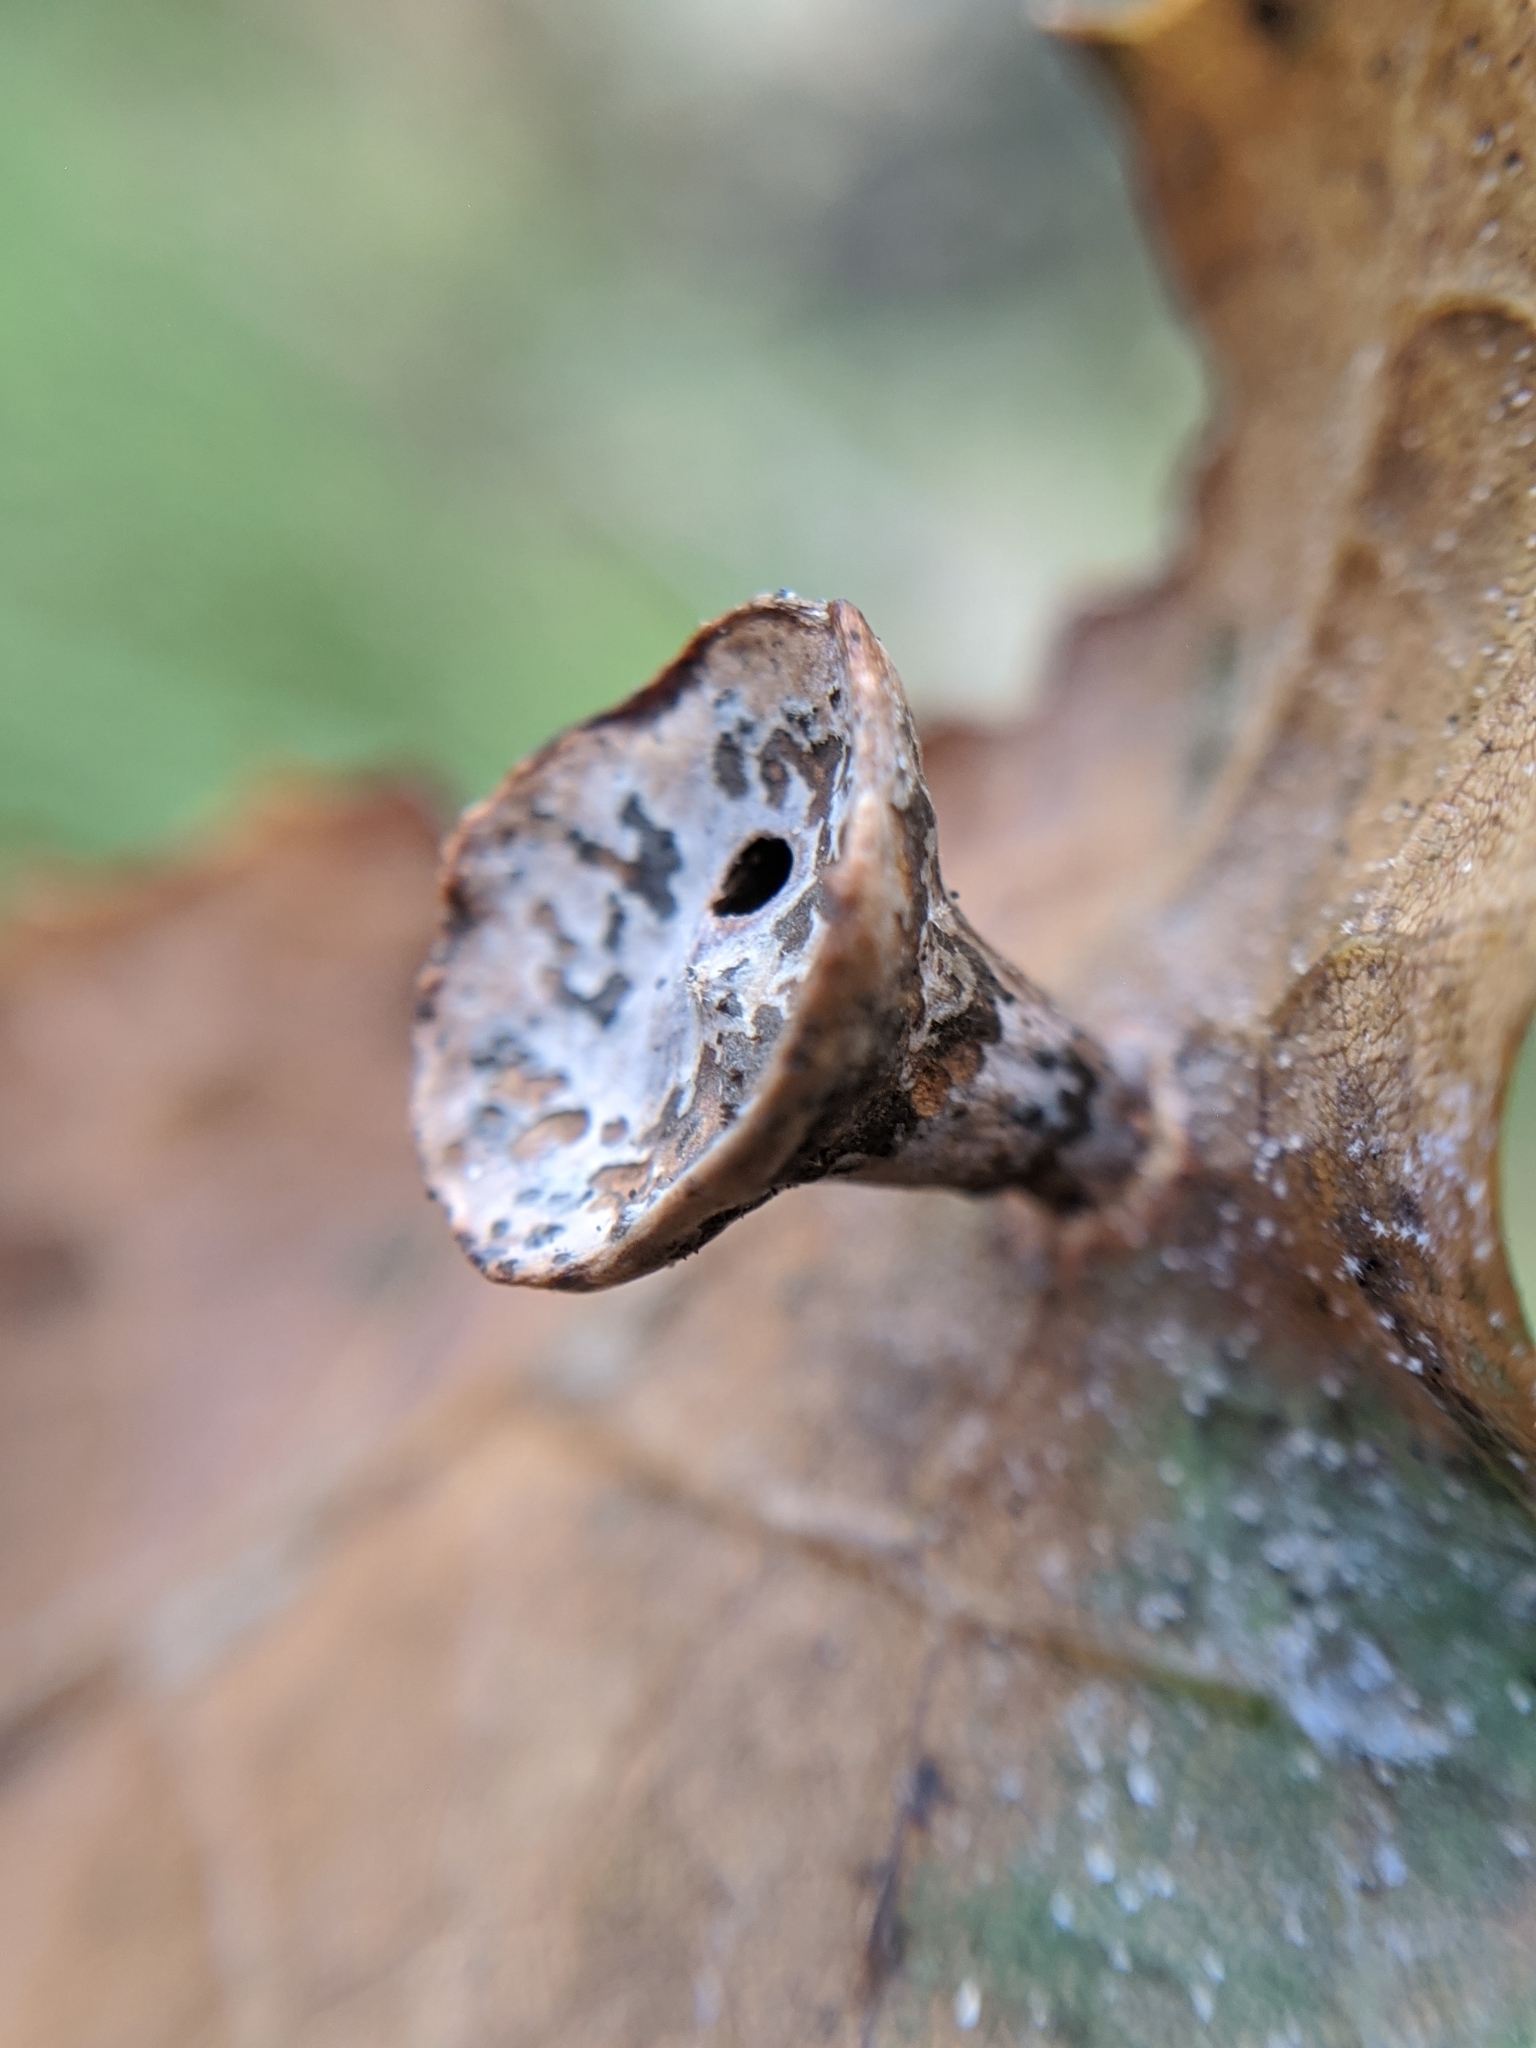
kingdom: Animalia
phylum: Arthropoda
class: Insecta
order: Hymenoptera
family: Cynipidae
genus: Amphibolips
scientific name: Amphibolips quercuspomiformis
